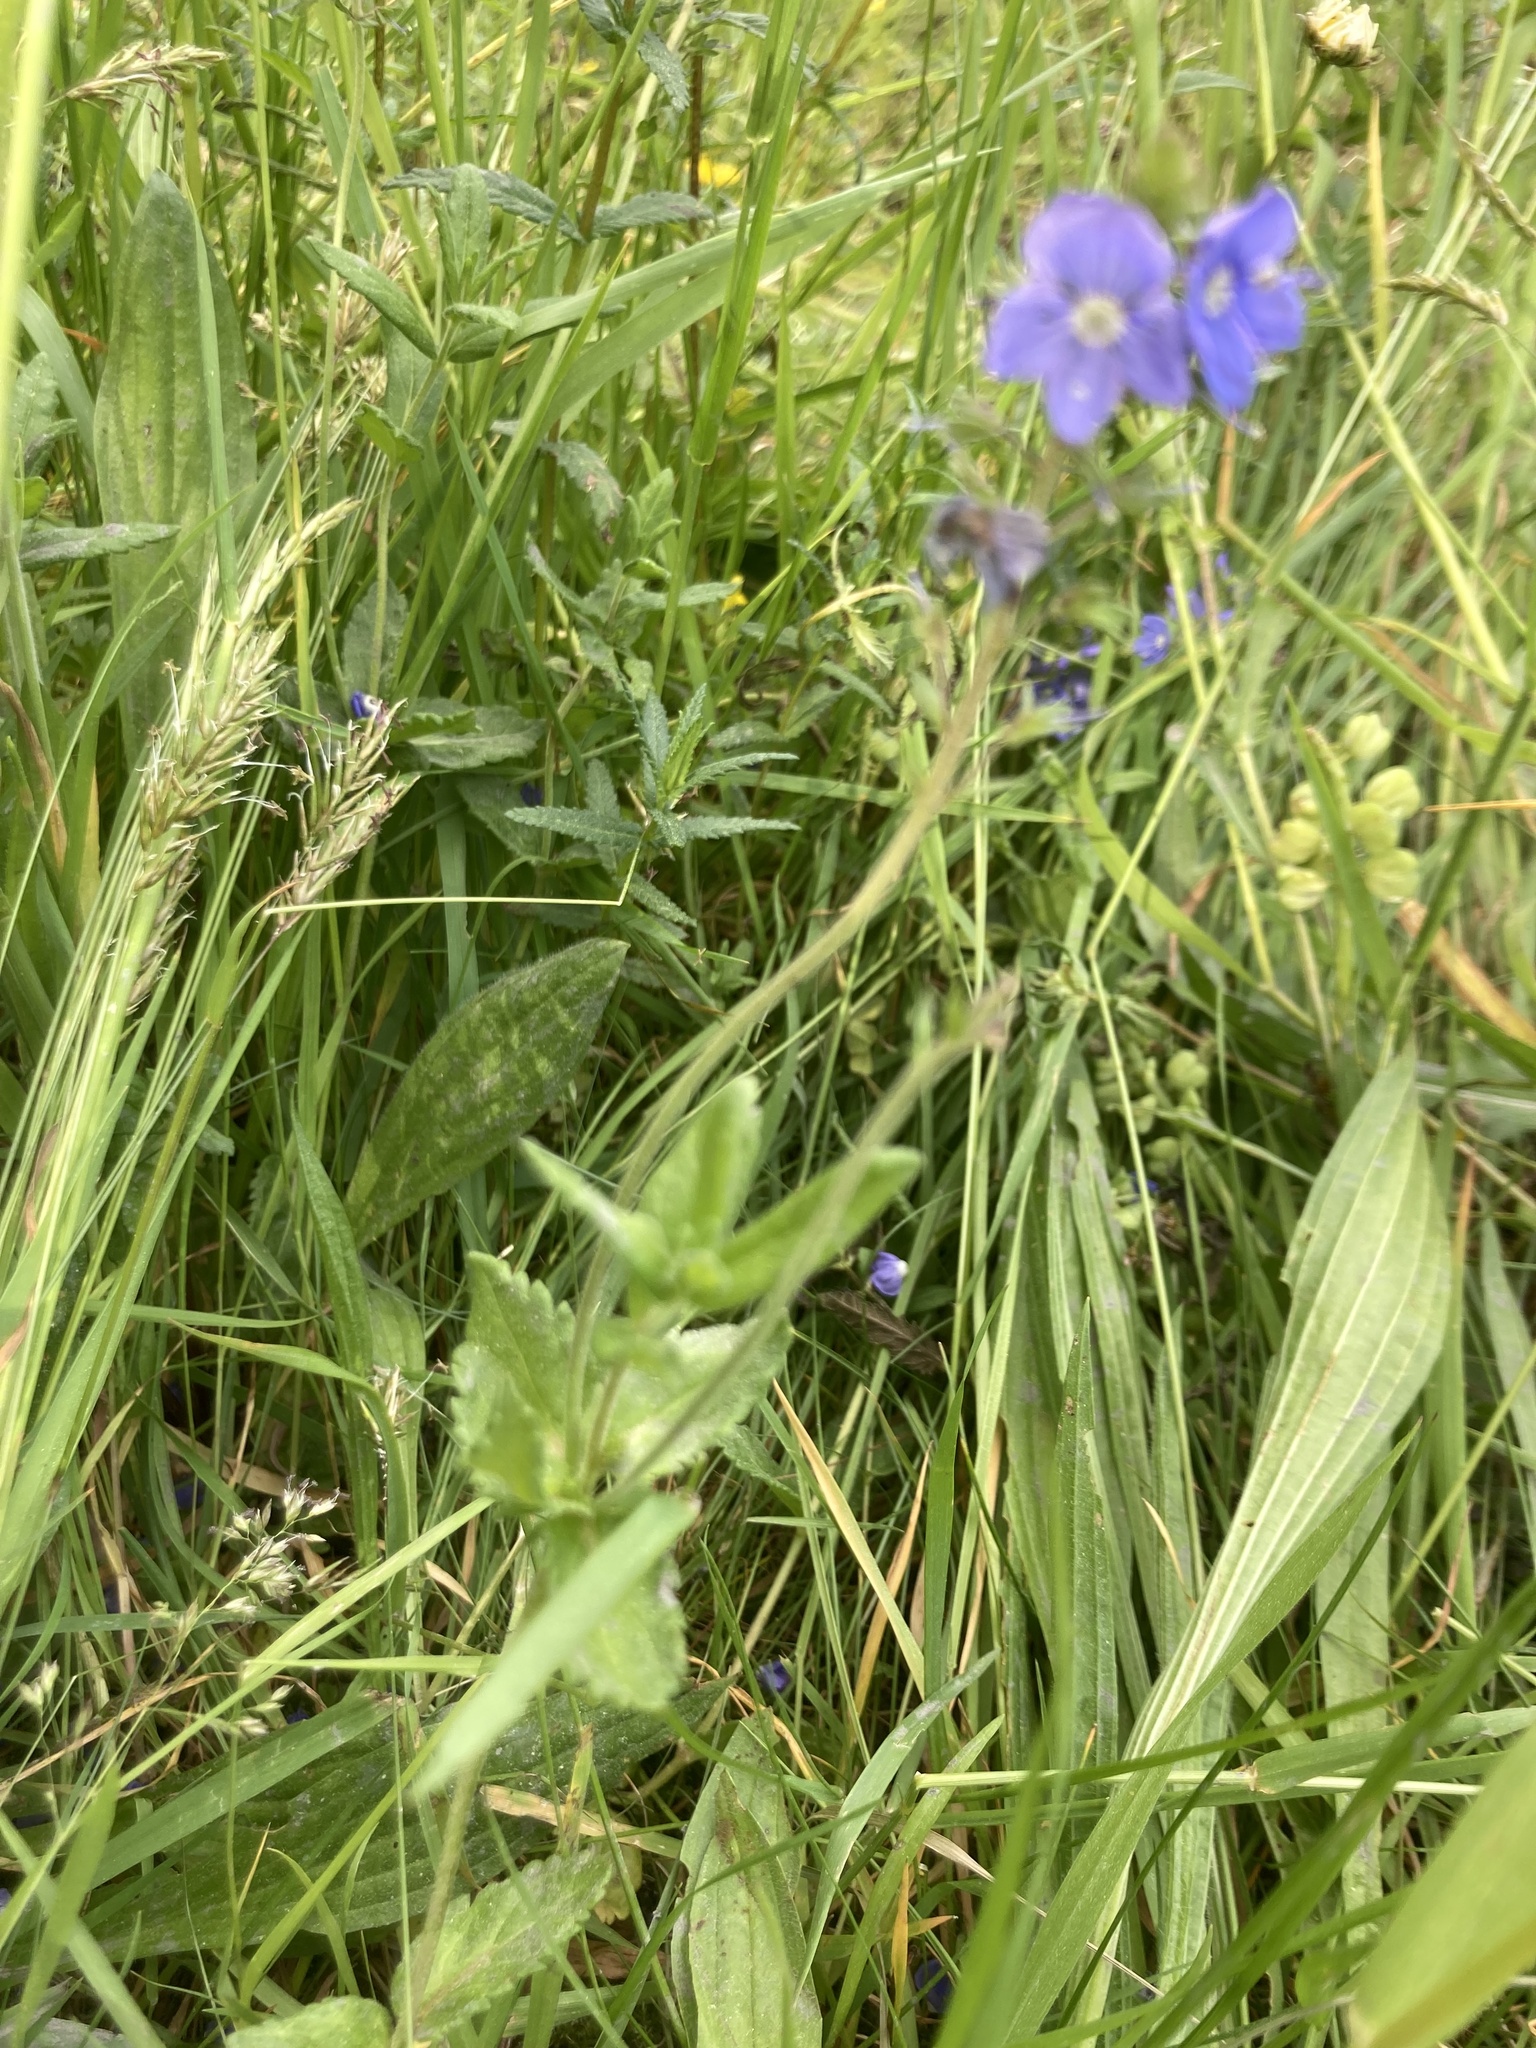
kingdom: Plantae
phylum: Tracheophyta
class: Magnoliopsida
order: Lamiales
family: Plantaginaceae
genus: Veronica
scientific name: Veronica chamaedrys
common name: Germander speedwell
